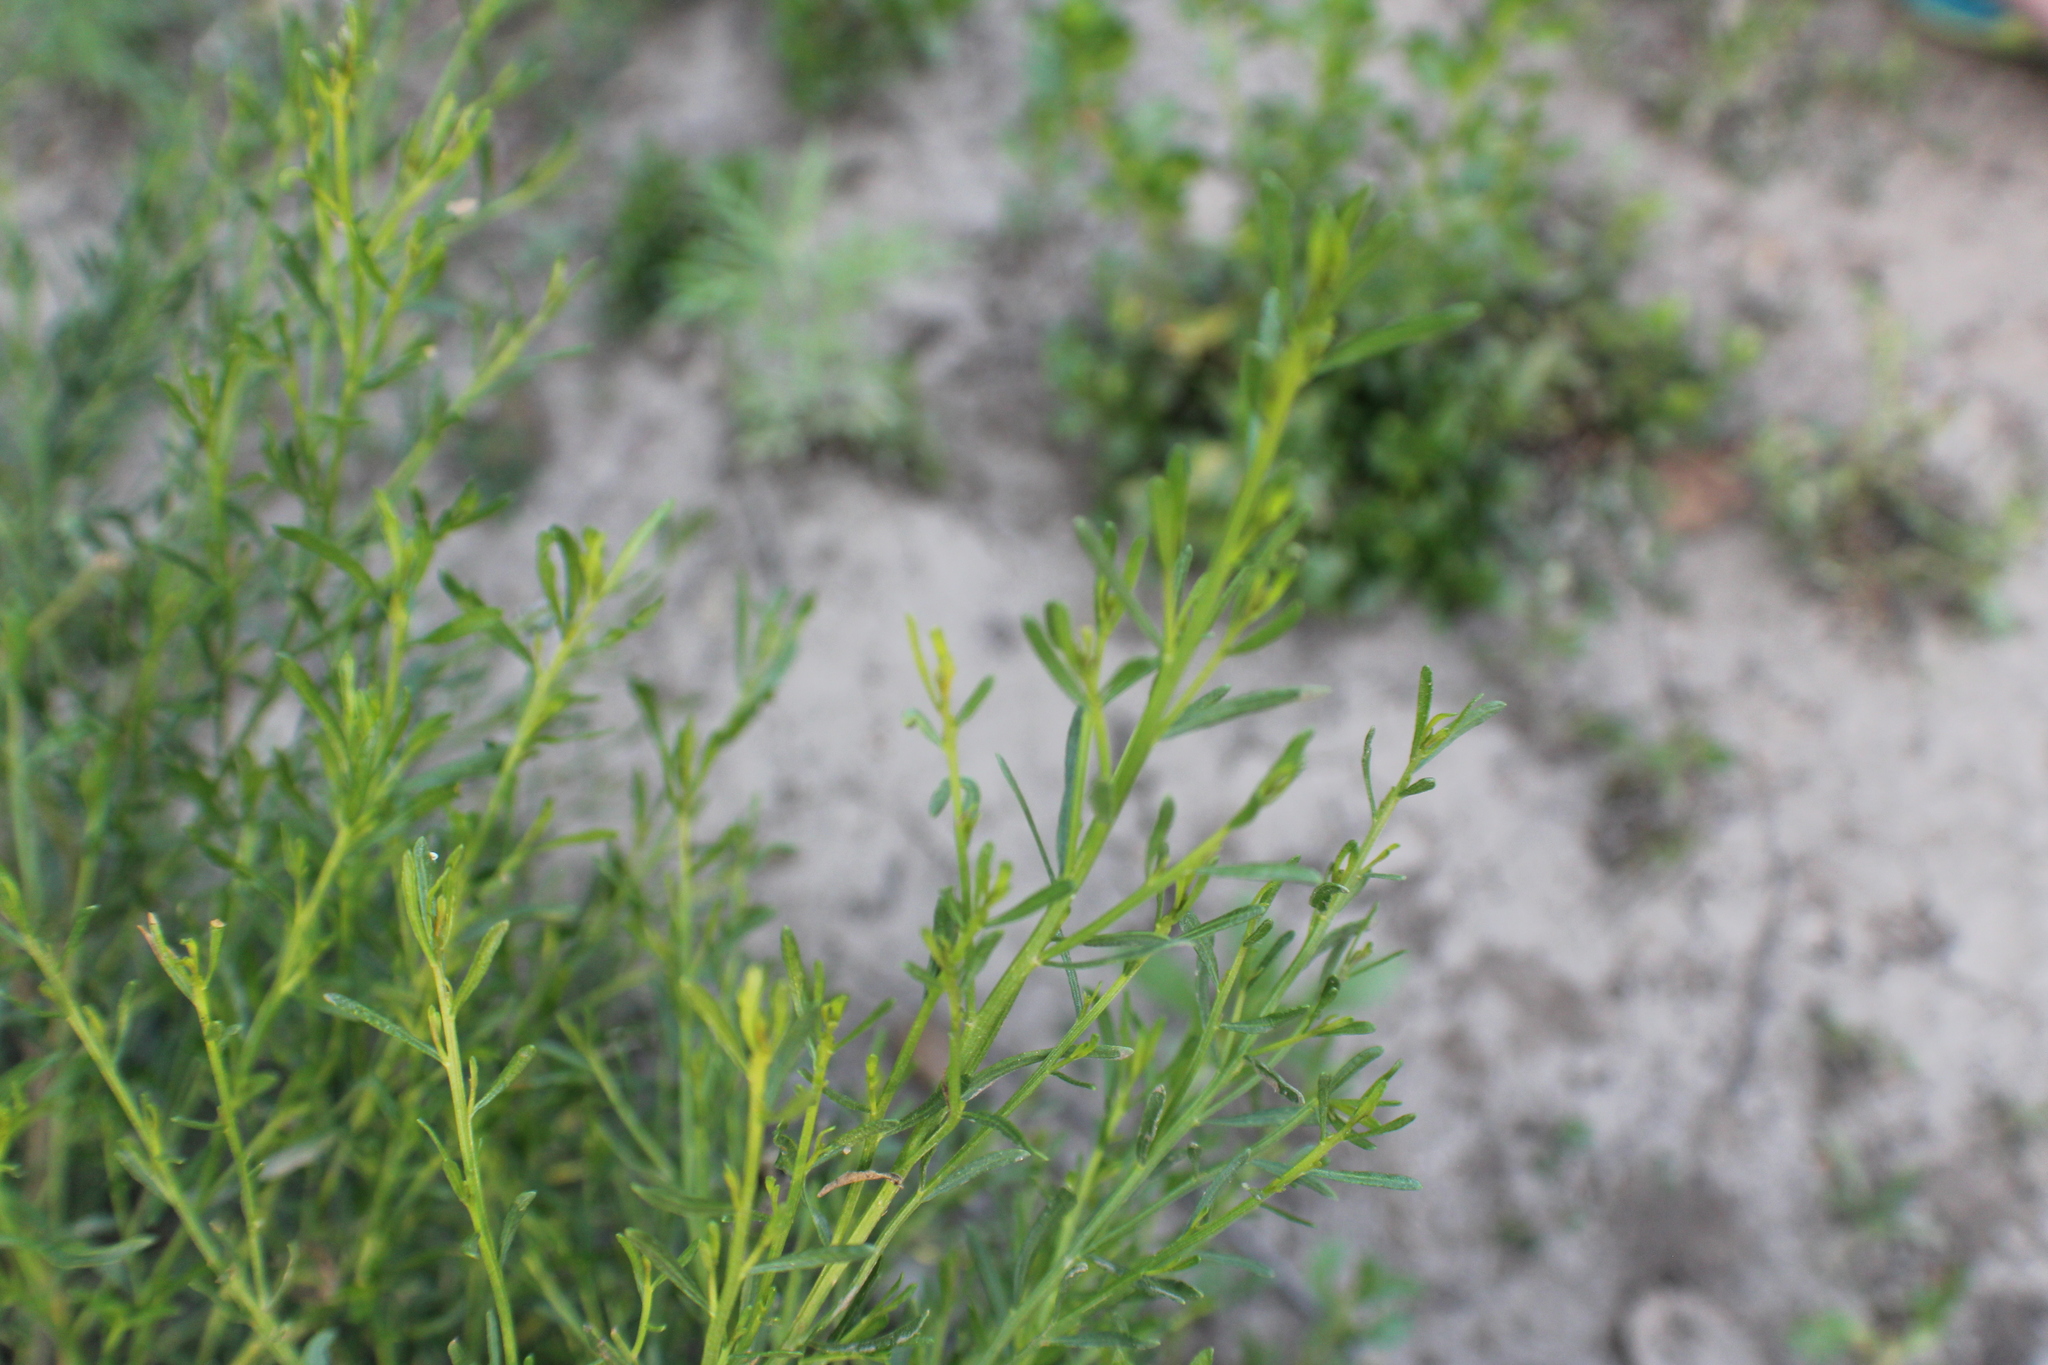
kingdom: Plantae
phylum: Tracheophyta
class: Magnoliopsida
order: Asterales
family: Asteraceae
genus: Baccharis
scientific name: Baccharis sarothroides
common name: Desert-broom
